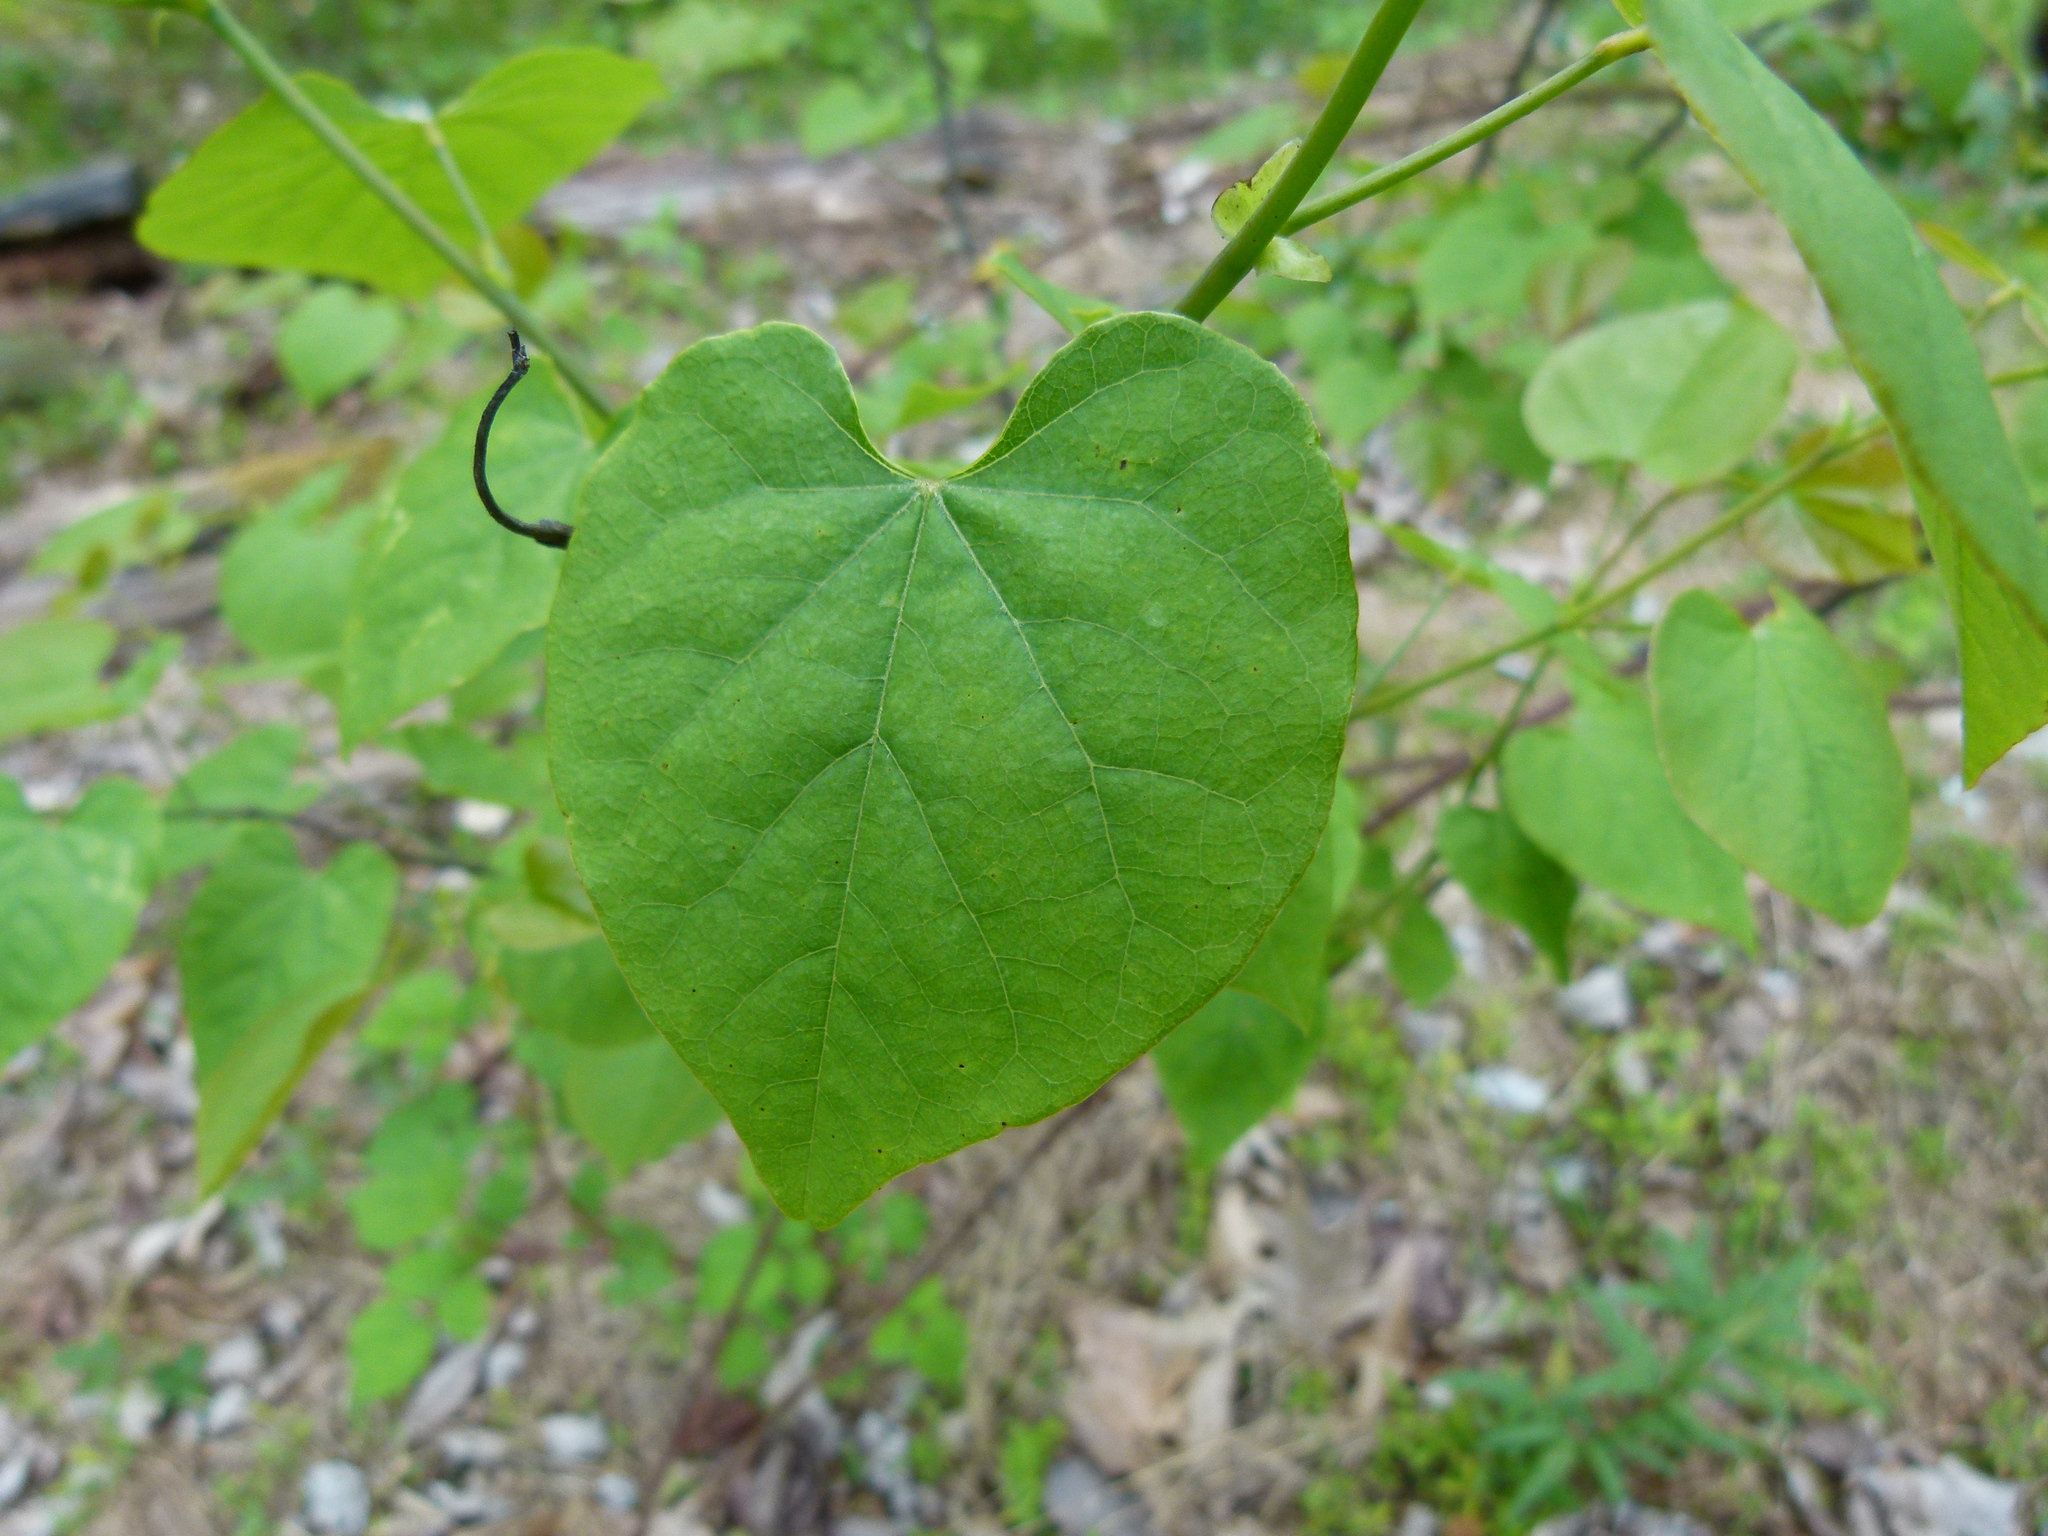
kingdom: Plantae
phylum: Tracheophyta
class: Magnoliopsida
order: Fabales
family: Fabaceae
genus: Cercis
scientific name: Cercis canadensis
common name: Eastern redbud
